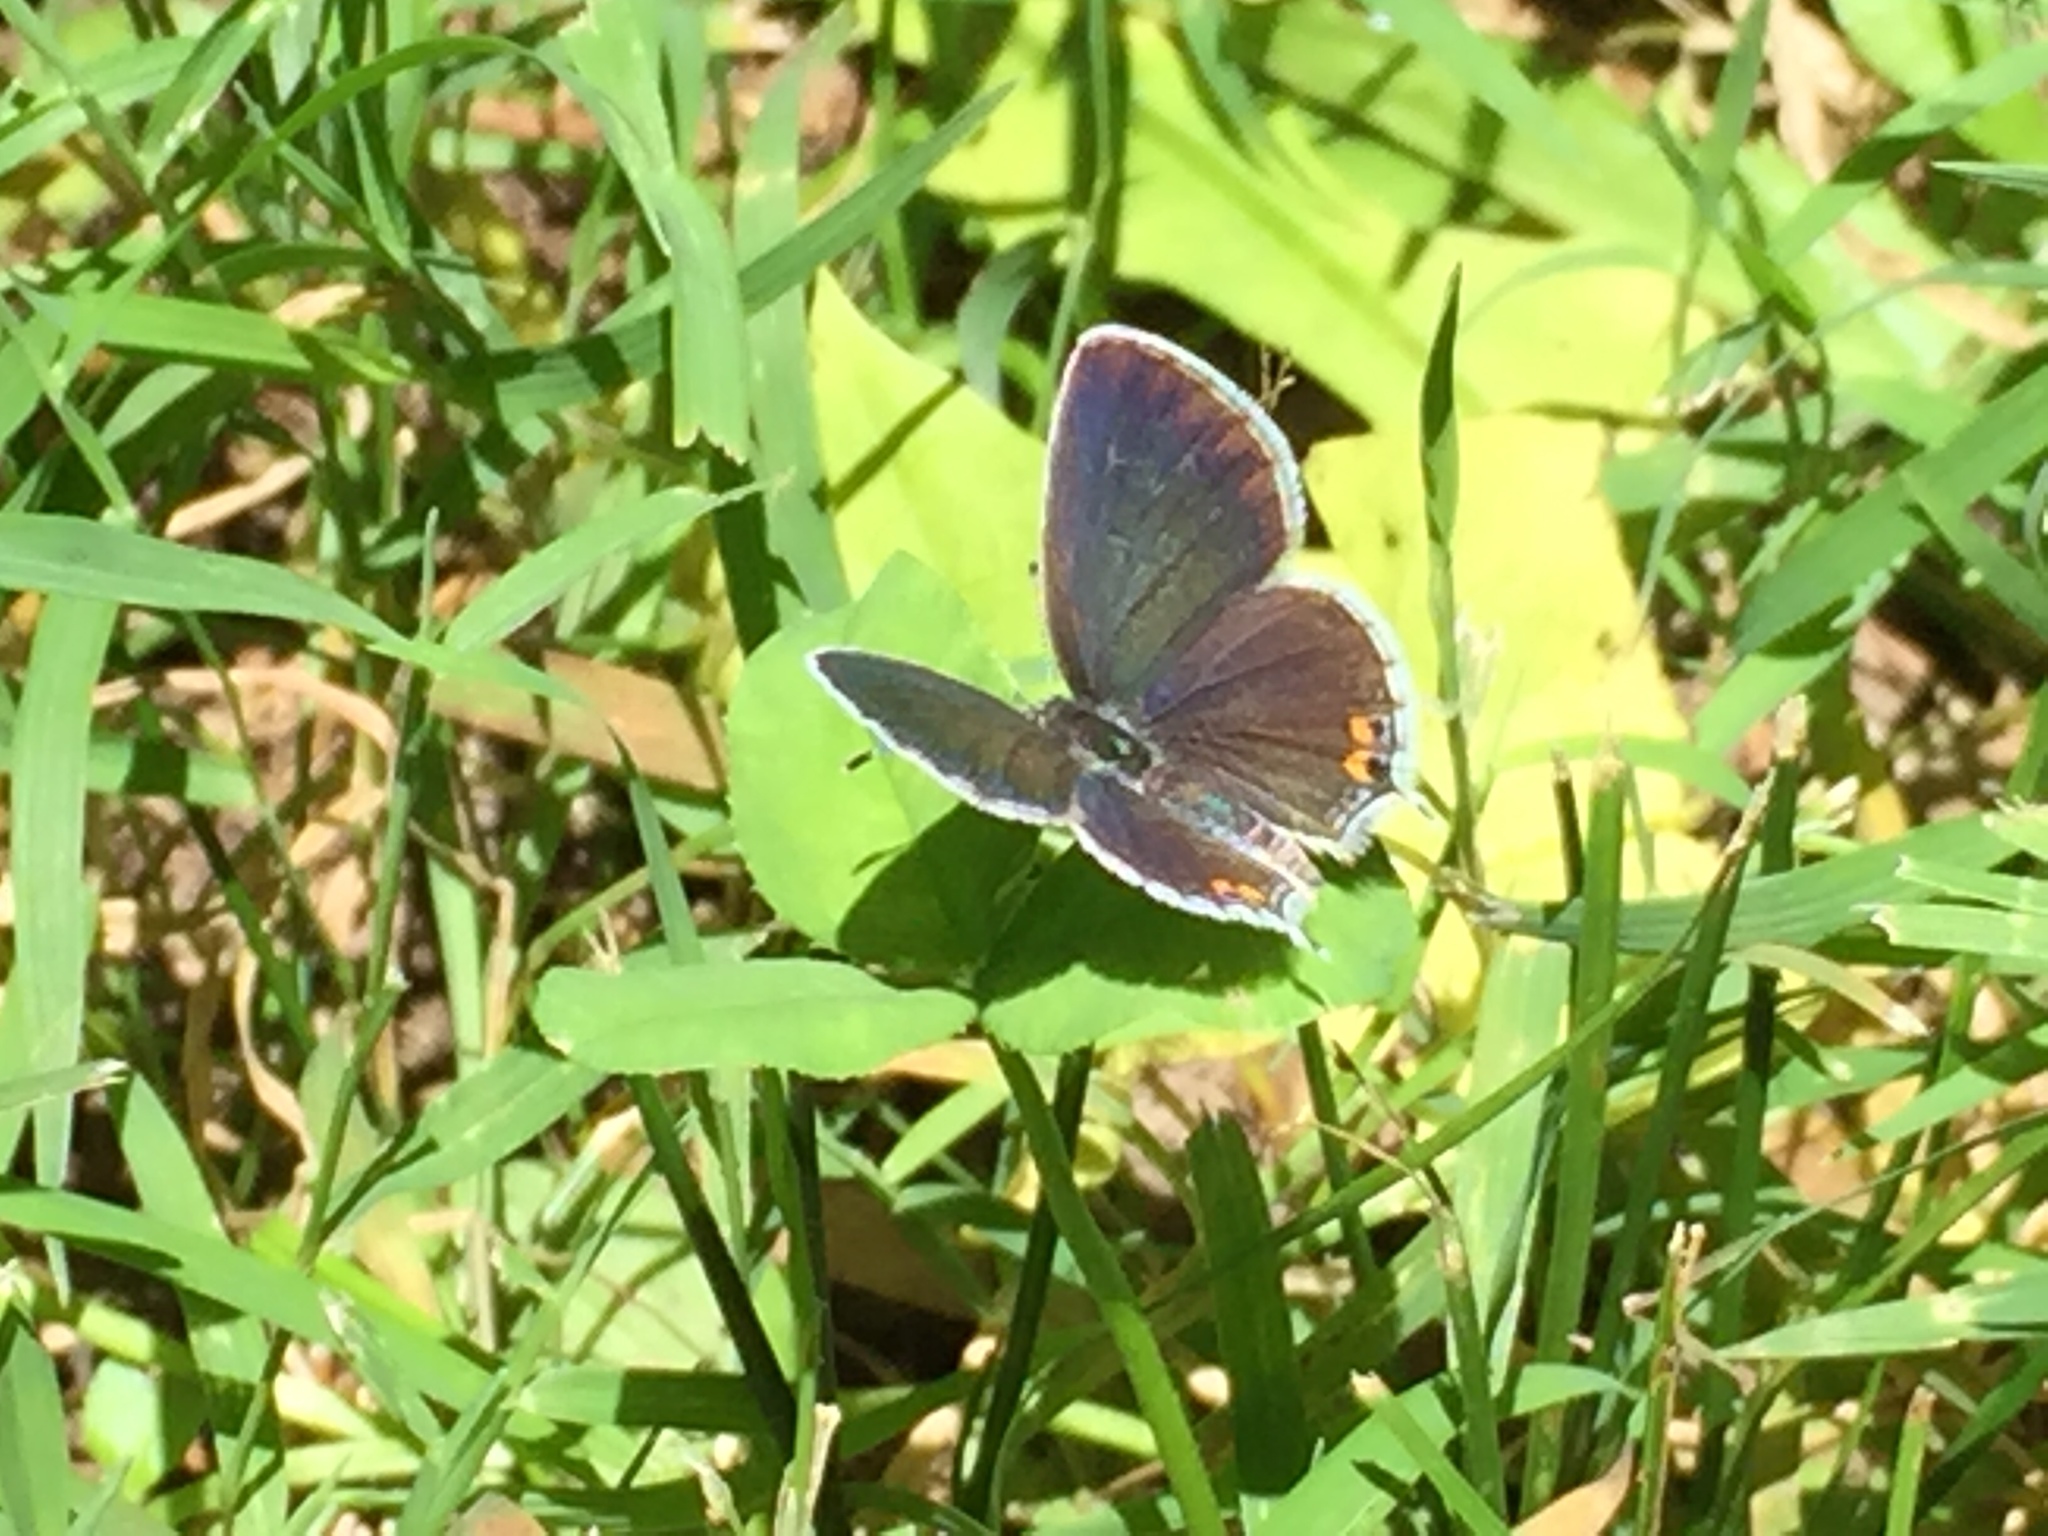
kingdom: Animalia
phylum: Arthropoda
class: Insecta
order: Lepidoptera
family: Lycaenidae
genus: Elkalyce
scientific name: Elkalyce comyntas
